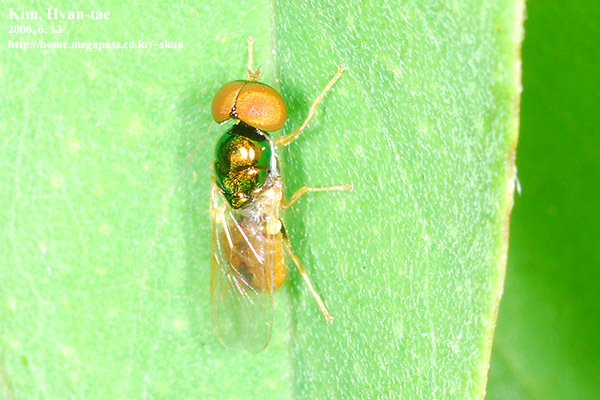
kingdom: Animalia
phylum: Arthropoda
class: Insecta
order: Diptera
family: Stratiomyidae
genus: Microchrysa
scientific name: Microchrysa flaviventris
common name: Soldier fly
